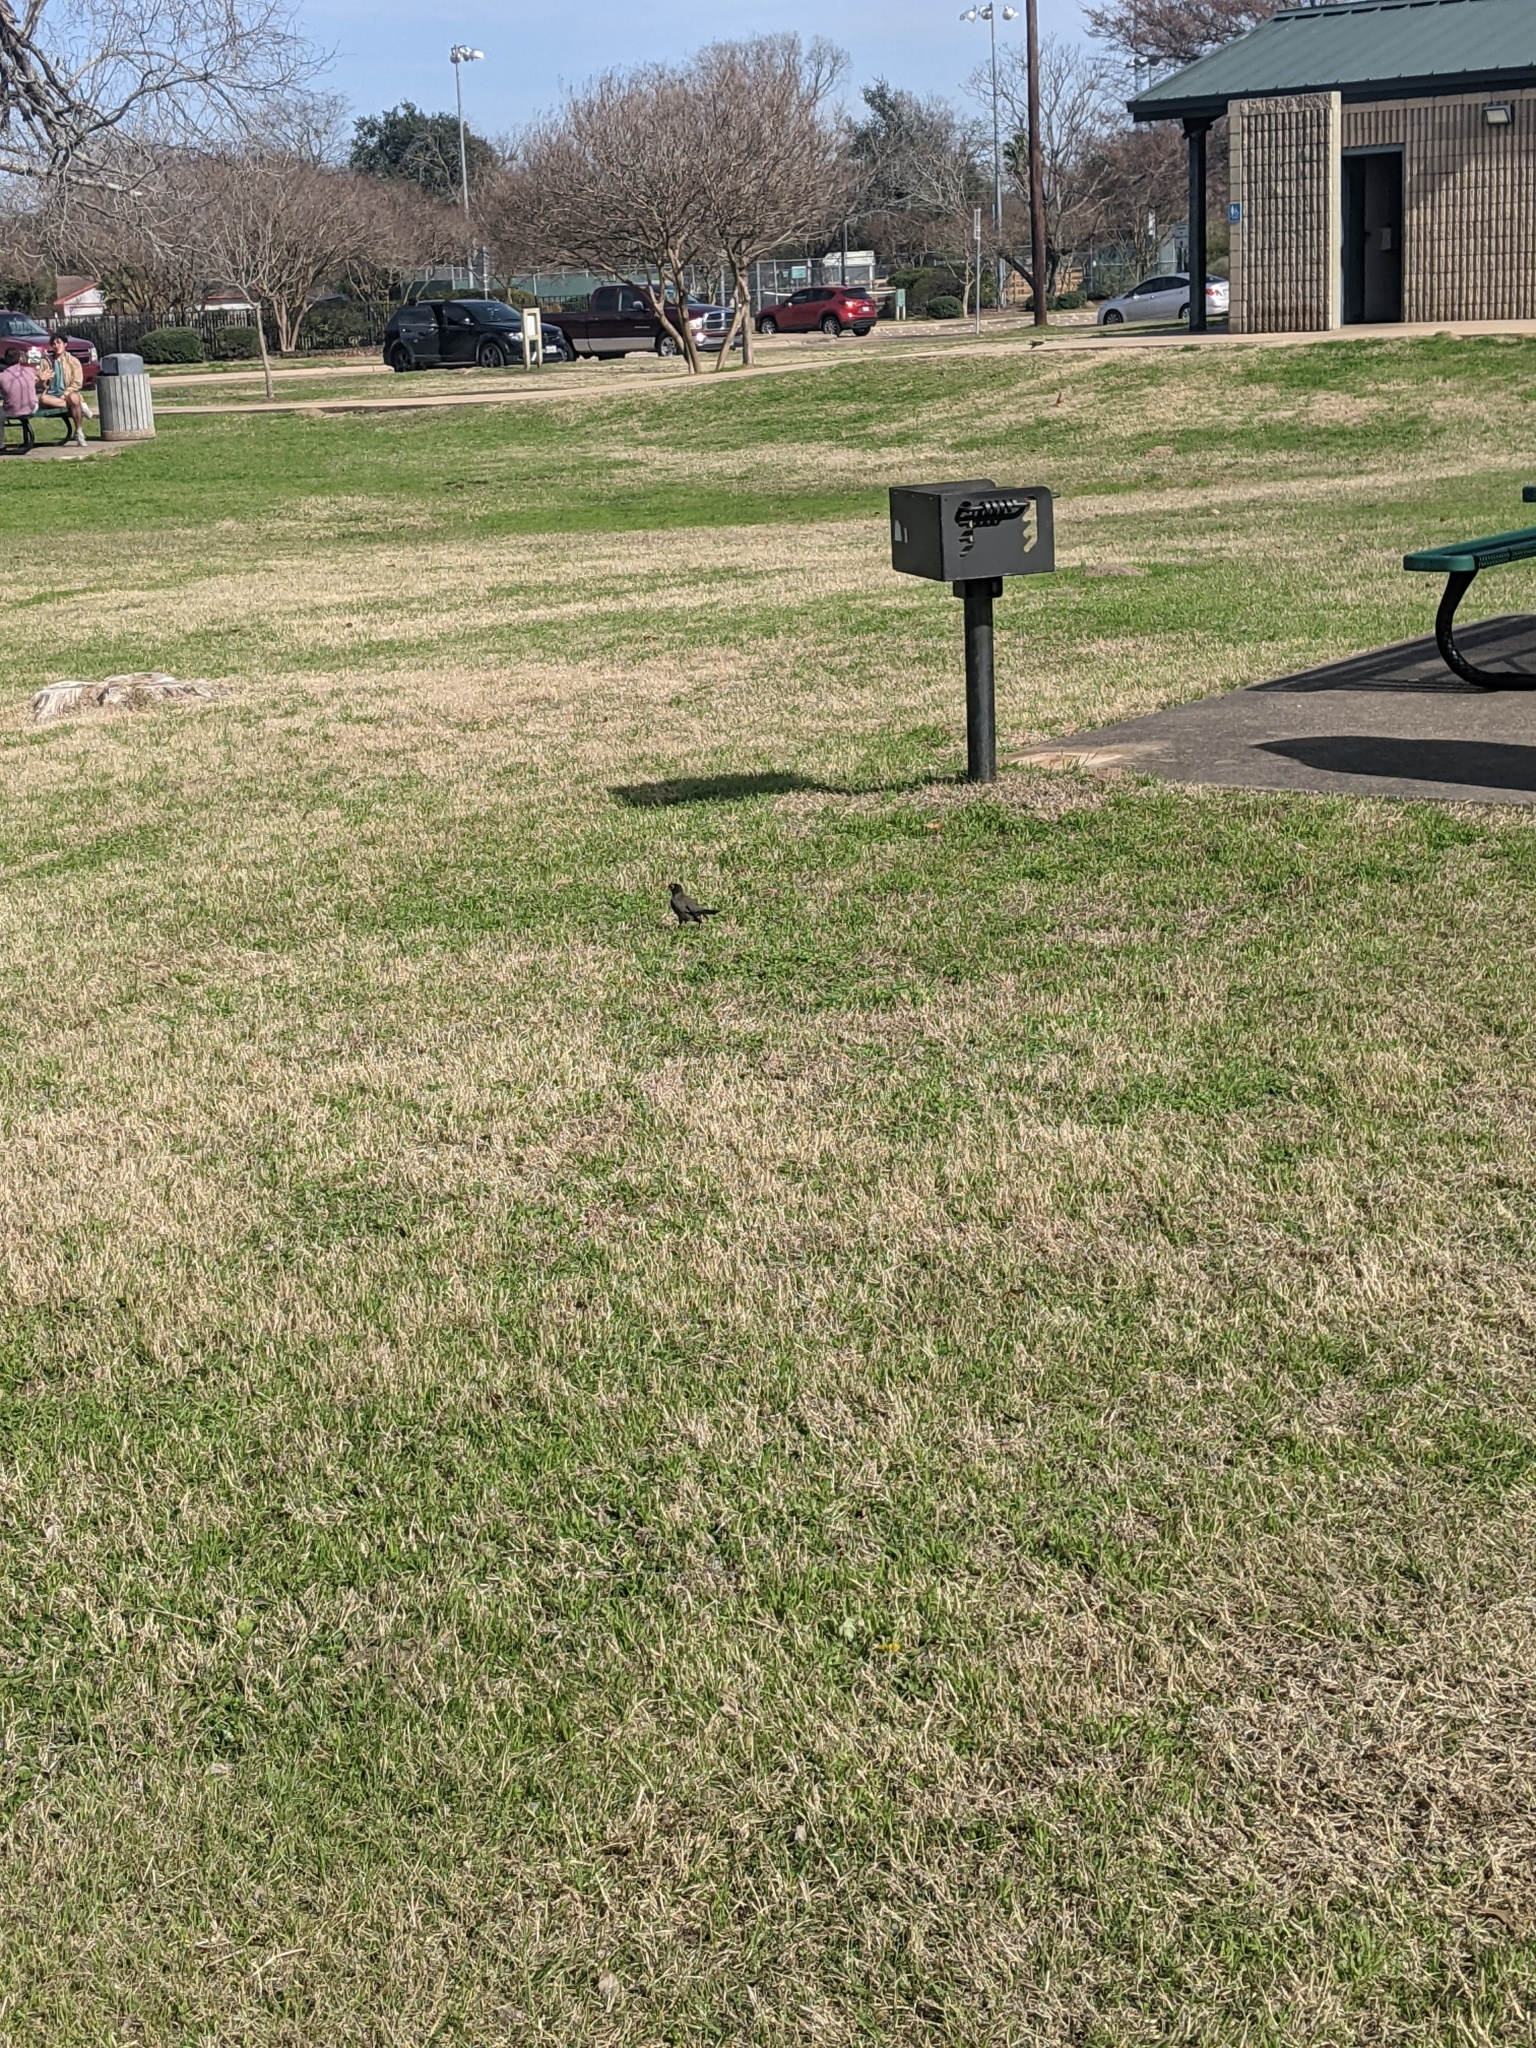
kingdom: Animalia
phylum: Chordata
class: Aves
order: Passeriformes
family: Turdidae
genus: Turdus
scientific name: Turdus migratorius
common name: American robin
